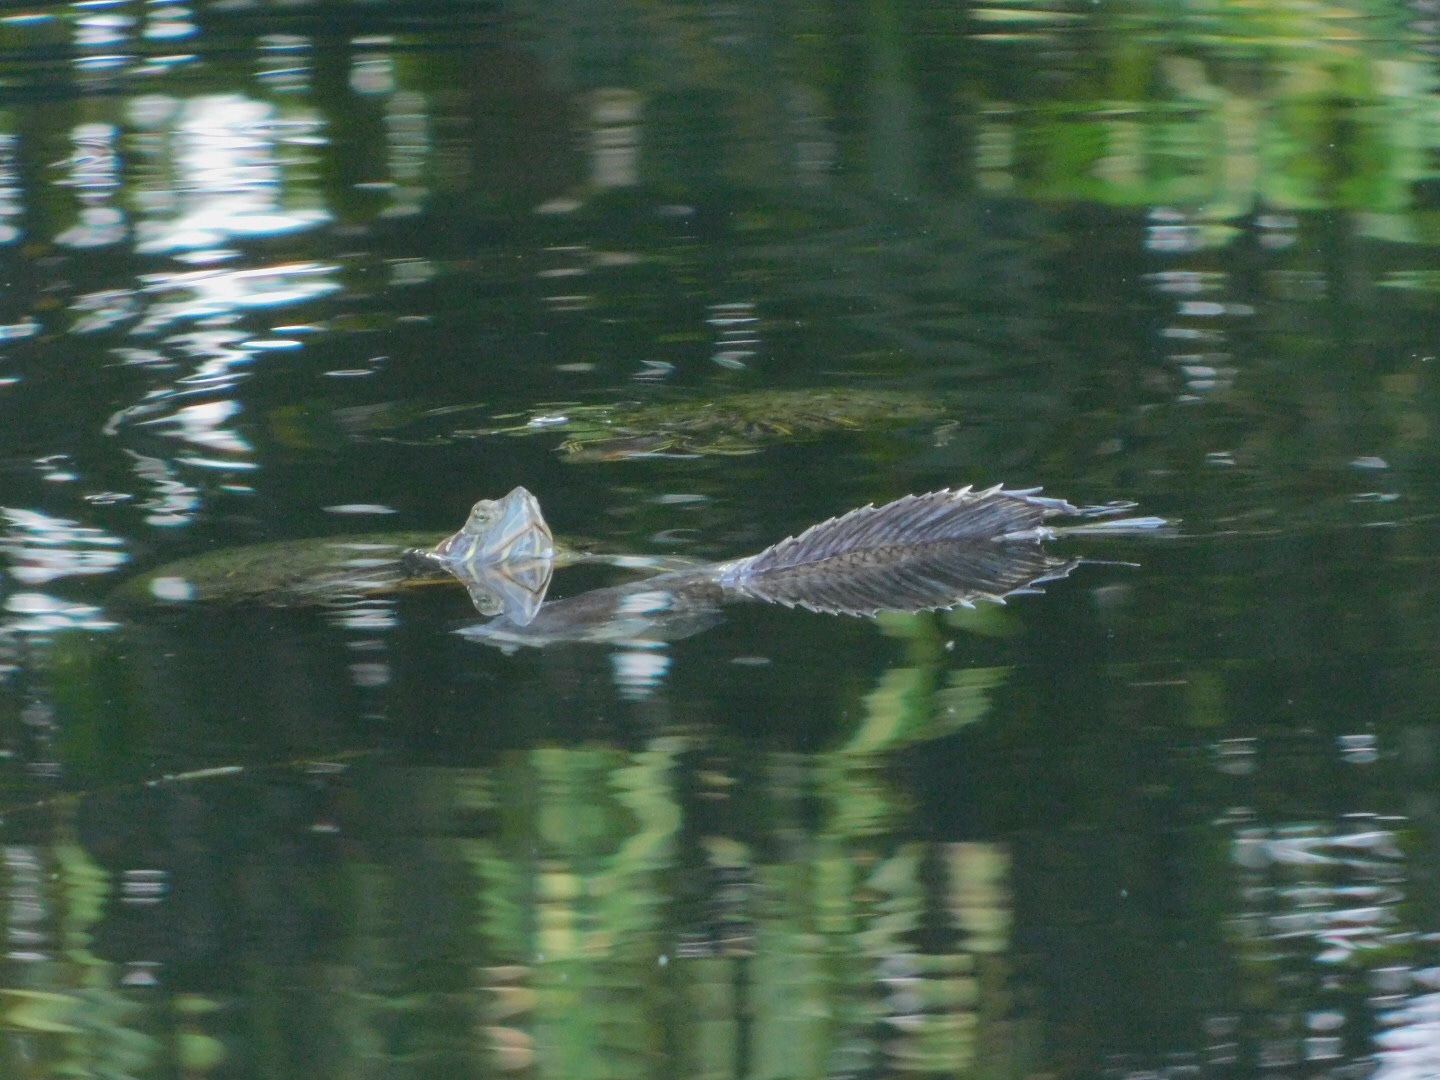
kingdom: Animalia
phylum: Chordata
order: Perciformes
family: Cichlidae
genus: Pelmatolapia
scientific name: Pelmatolapia mariae
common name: Spotted tilapia
